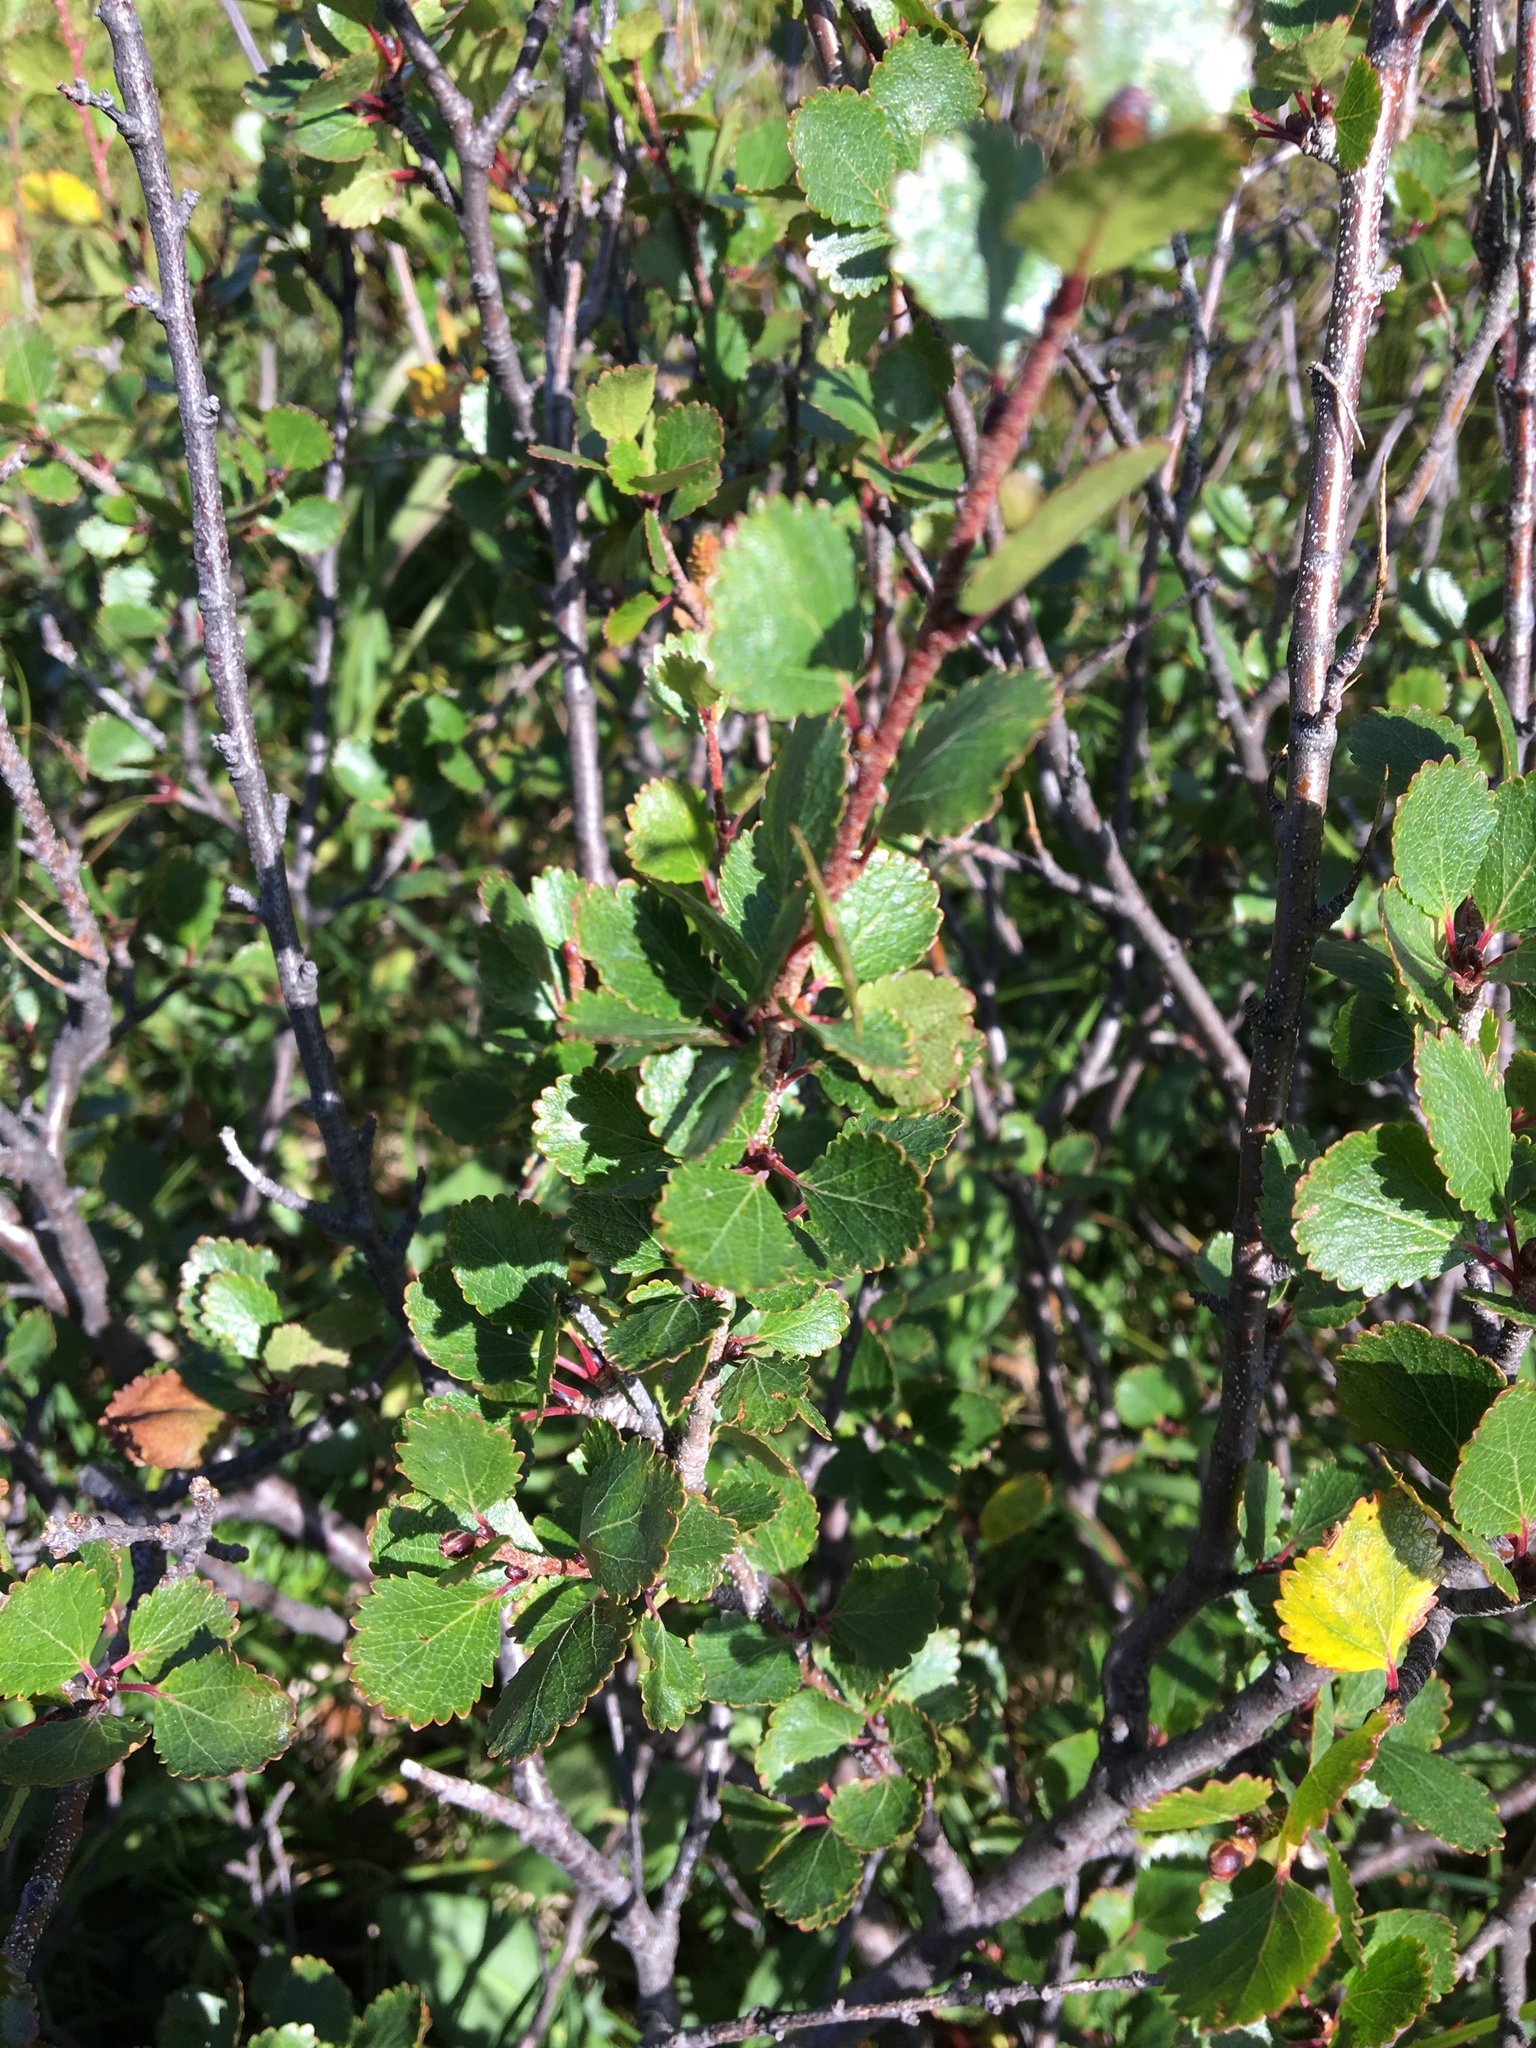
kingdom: Plantae
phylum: Tracheophyta
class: Magnoliopsida
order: Fagales
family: Betulaceae
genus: Betula
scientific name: Betula nana
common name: Arctic dwarf birch
